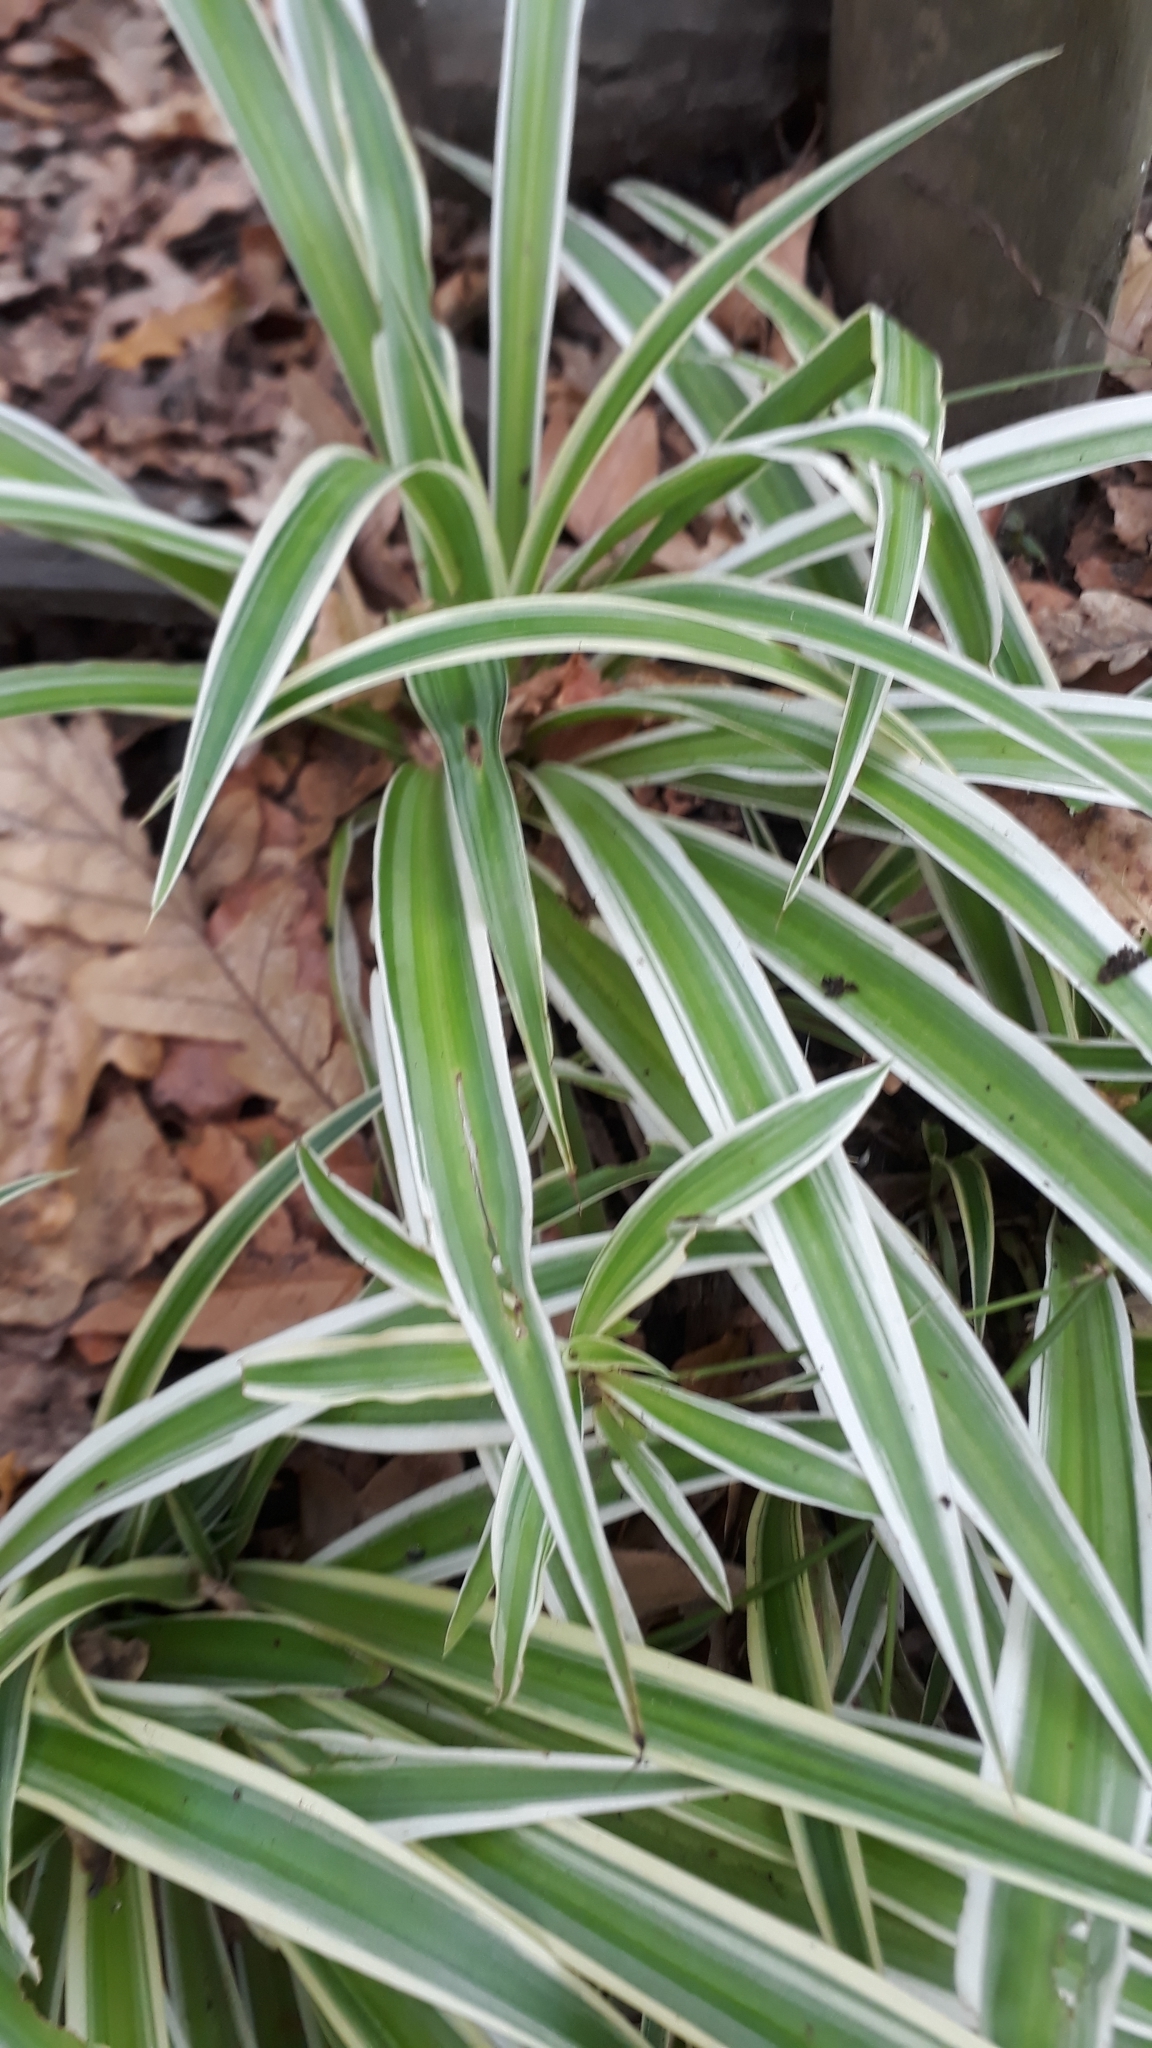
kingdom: Plantae
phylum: Tracheophyta
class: Liliopsida
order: Asparagales
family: Asparagaceae
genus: Chlorophytum
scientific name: Chlorophytum comosum
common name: Spider plant
